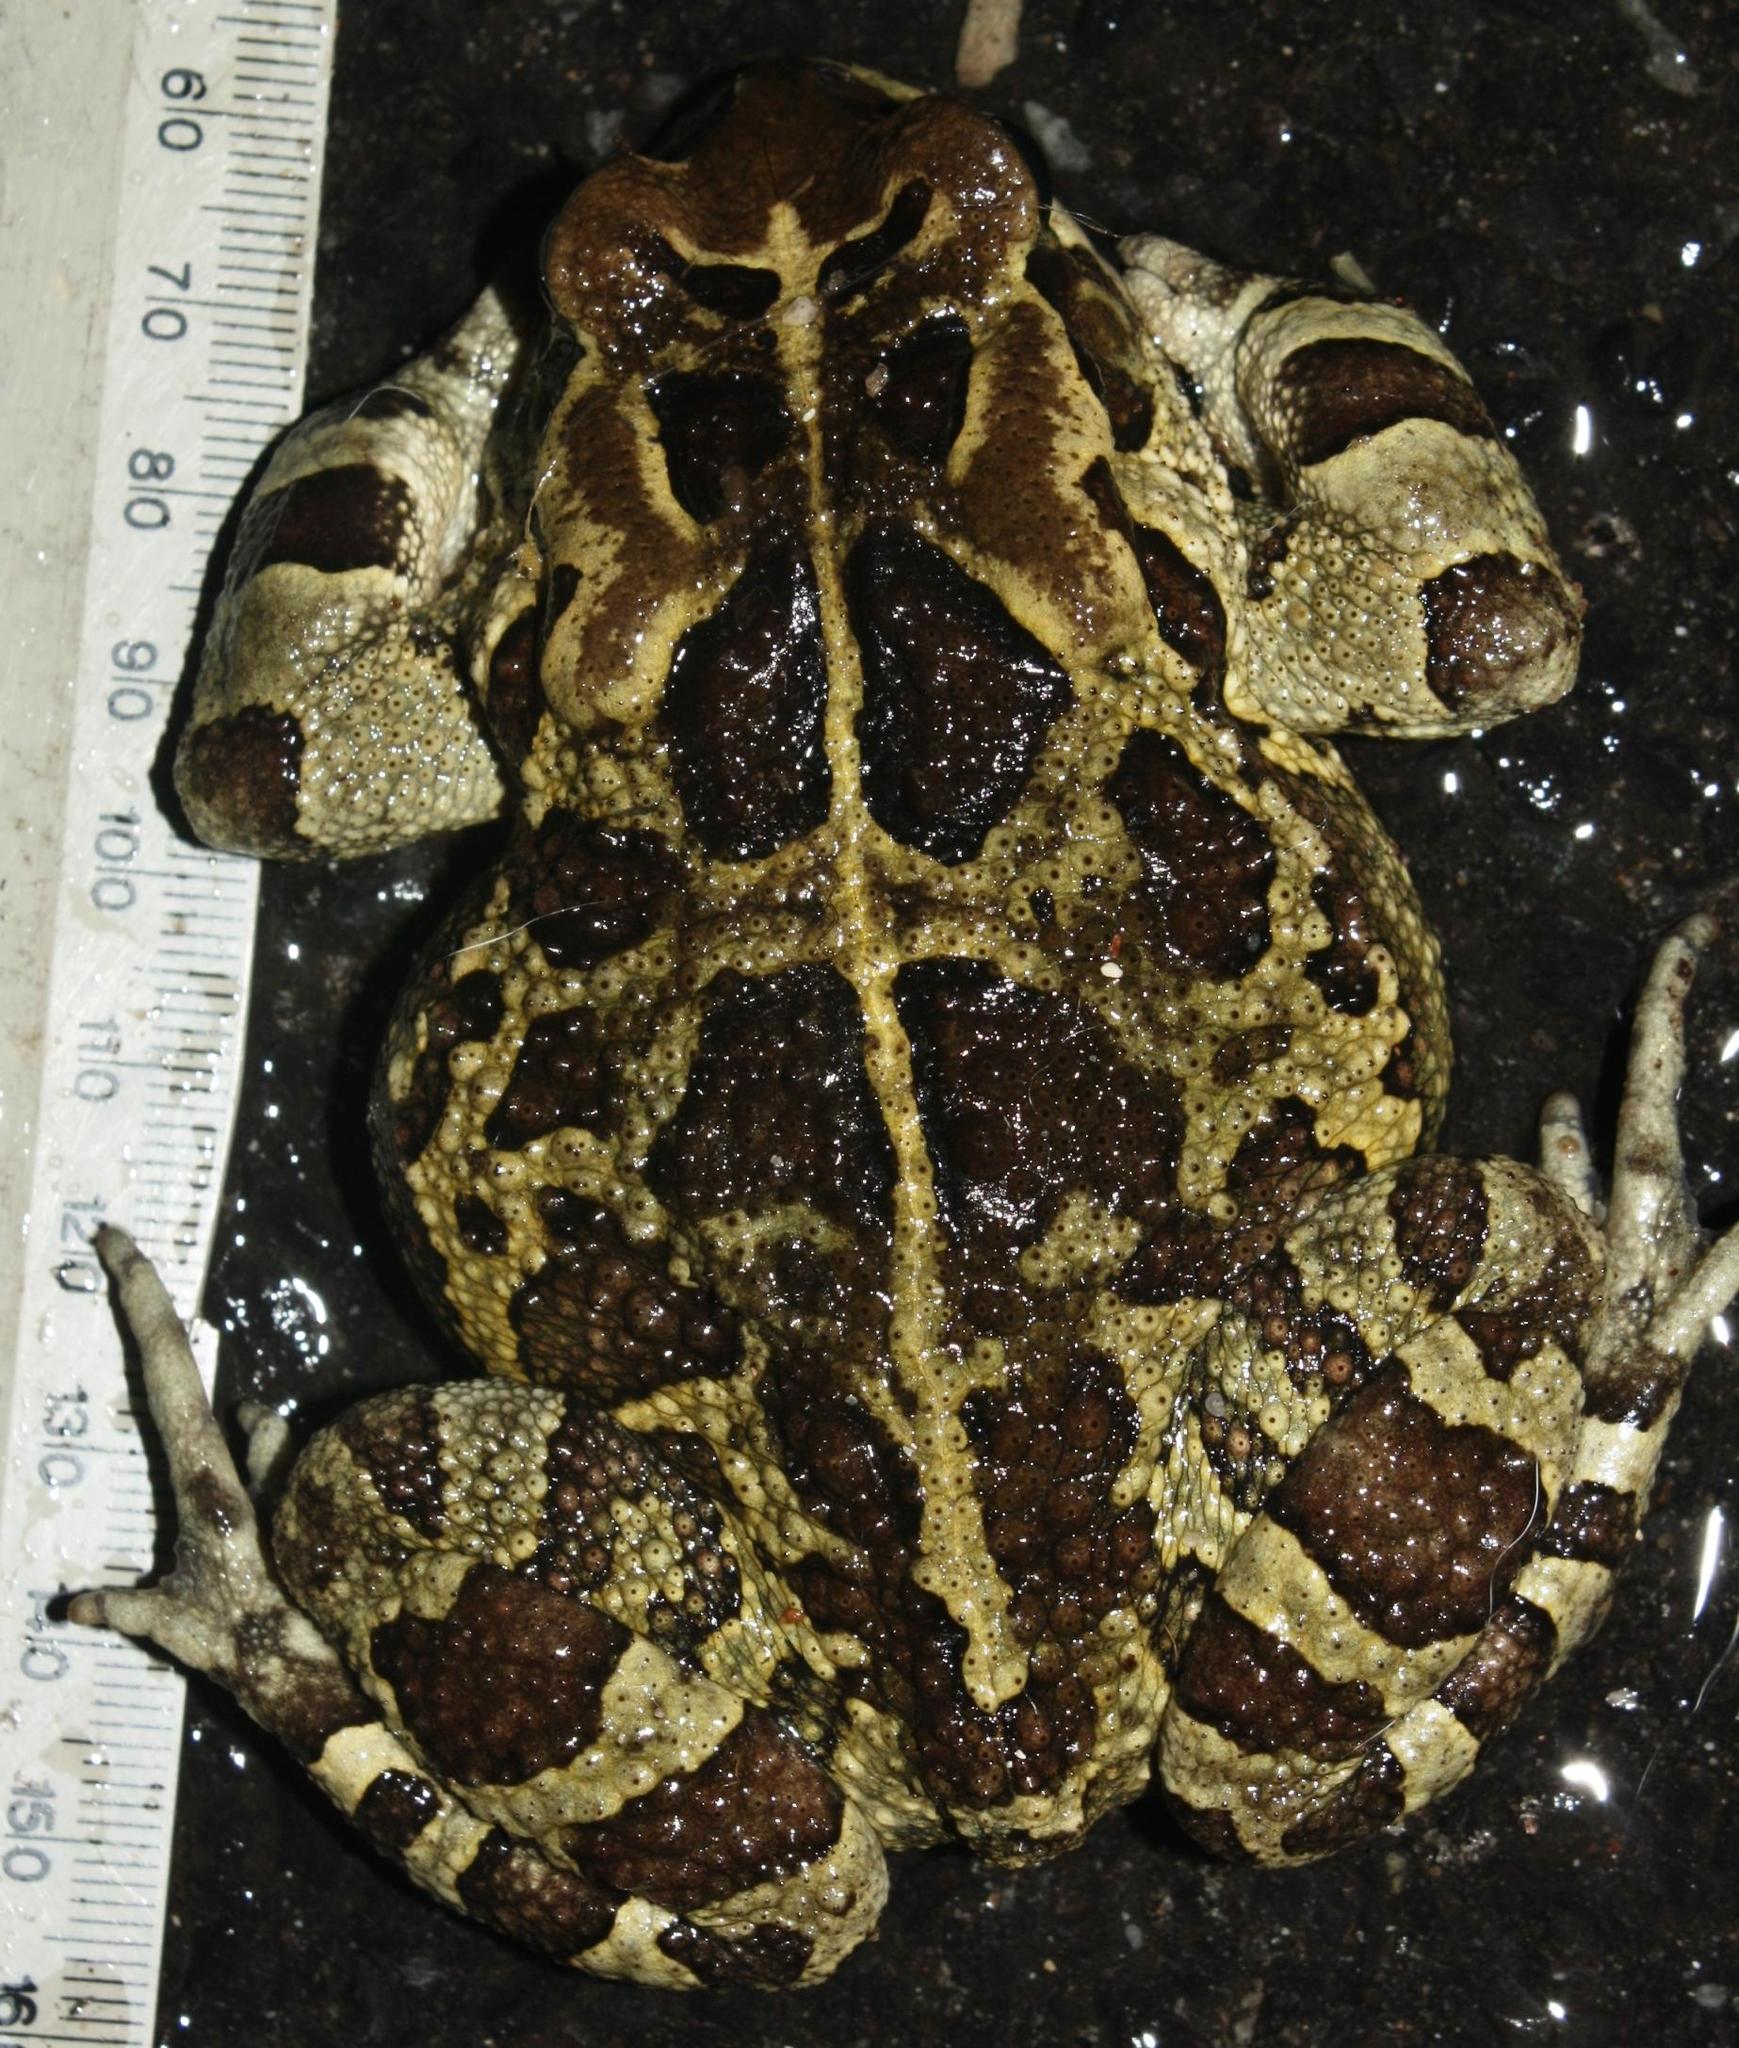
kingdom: Animalia
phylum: Chordata
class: Amphibia
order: Anura
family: Bufonidae
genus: Sclerophrys
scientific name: Sclerophrys pantherina
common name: Panther toad
